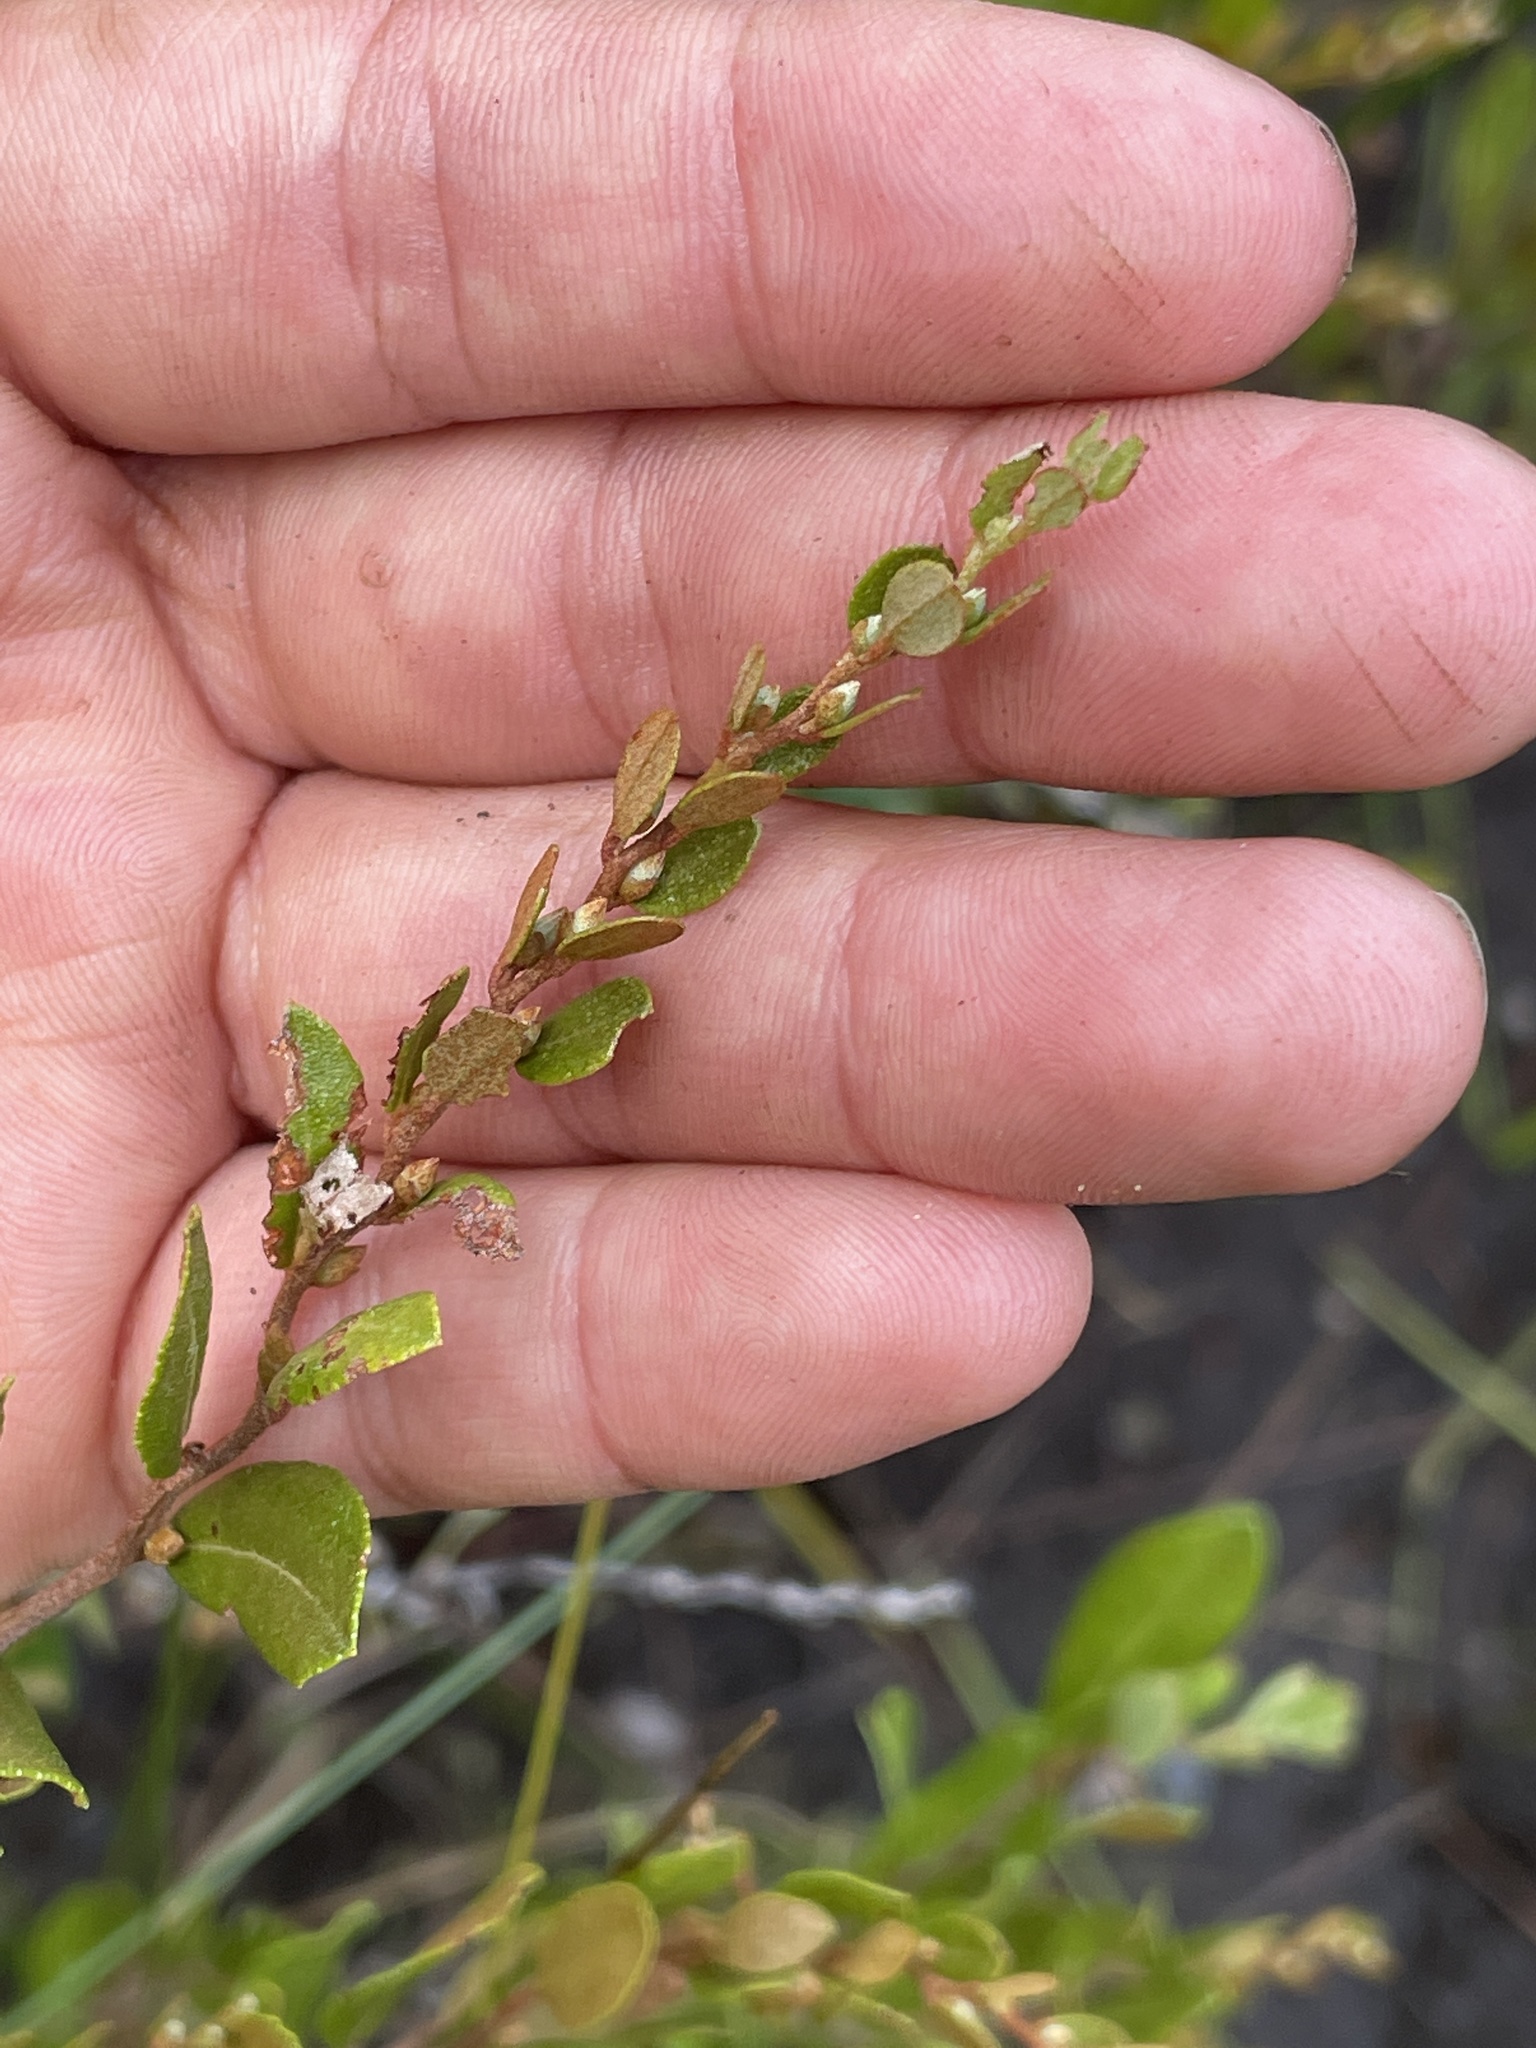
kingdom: Plantae
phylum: Tracheophyta
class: Magnoliopsida
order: Ericales
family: Ericaceae
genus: Chamaedaphne
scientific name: Chamaedaphne calyculata
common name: Leatherleaf
